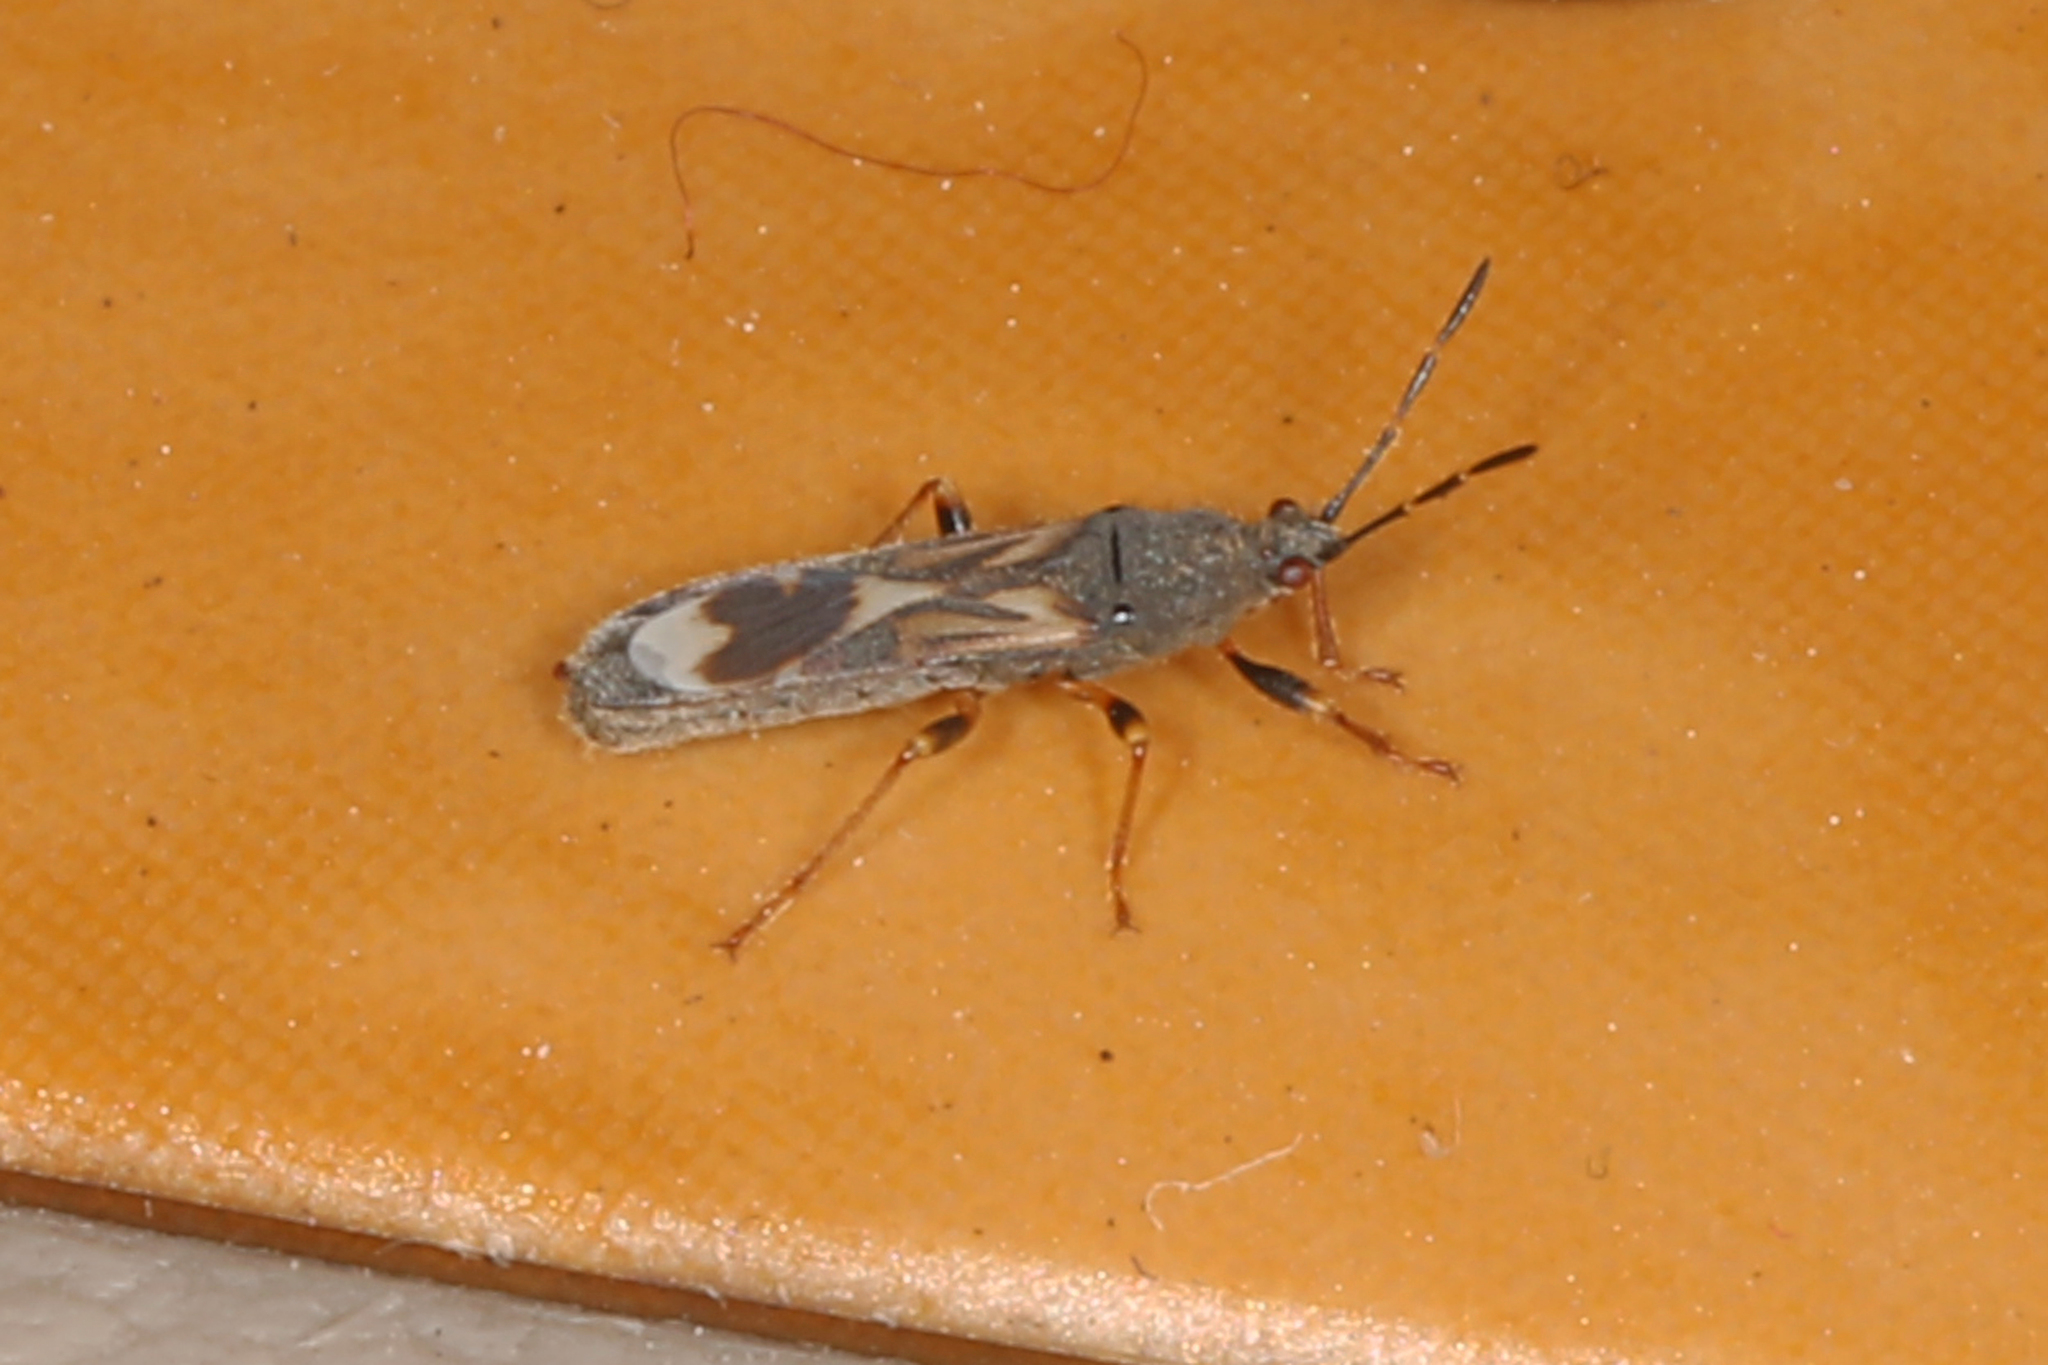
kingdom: Animalia
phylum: Arthropoda
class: Insecta
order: Hemiptera
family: Blissidae
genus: Ischnodemus
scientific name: Ischnodemus variegatus
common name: Myakka bug
